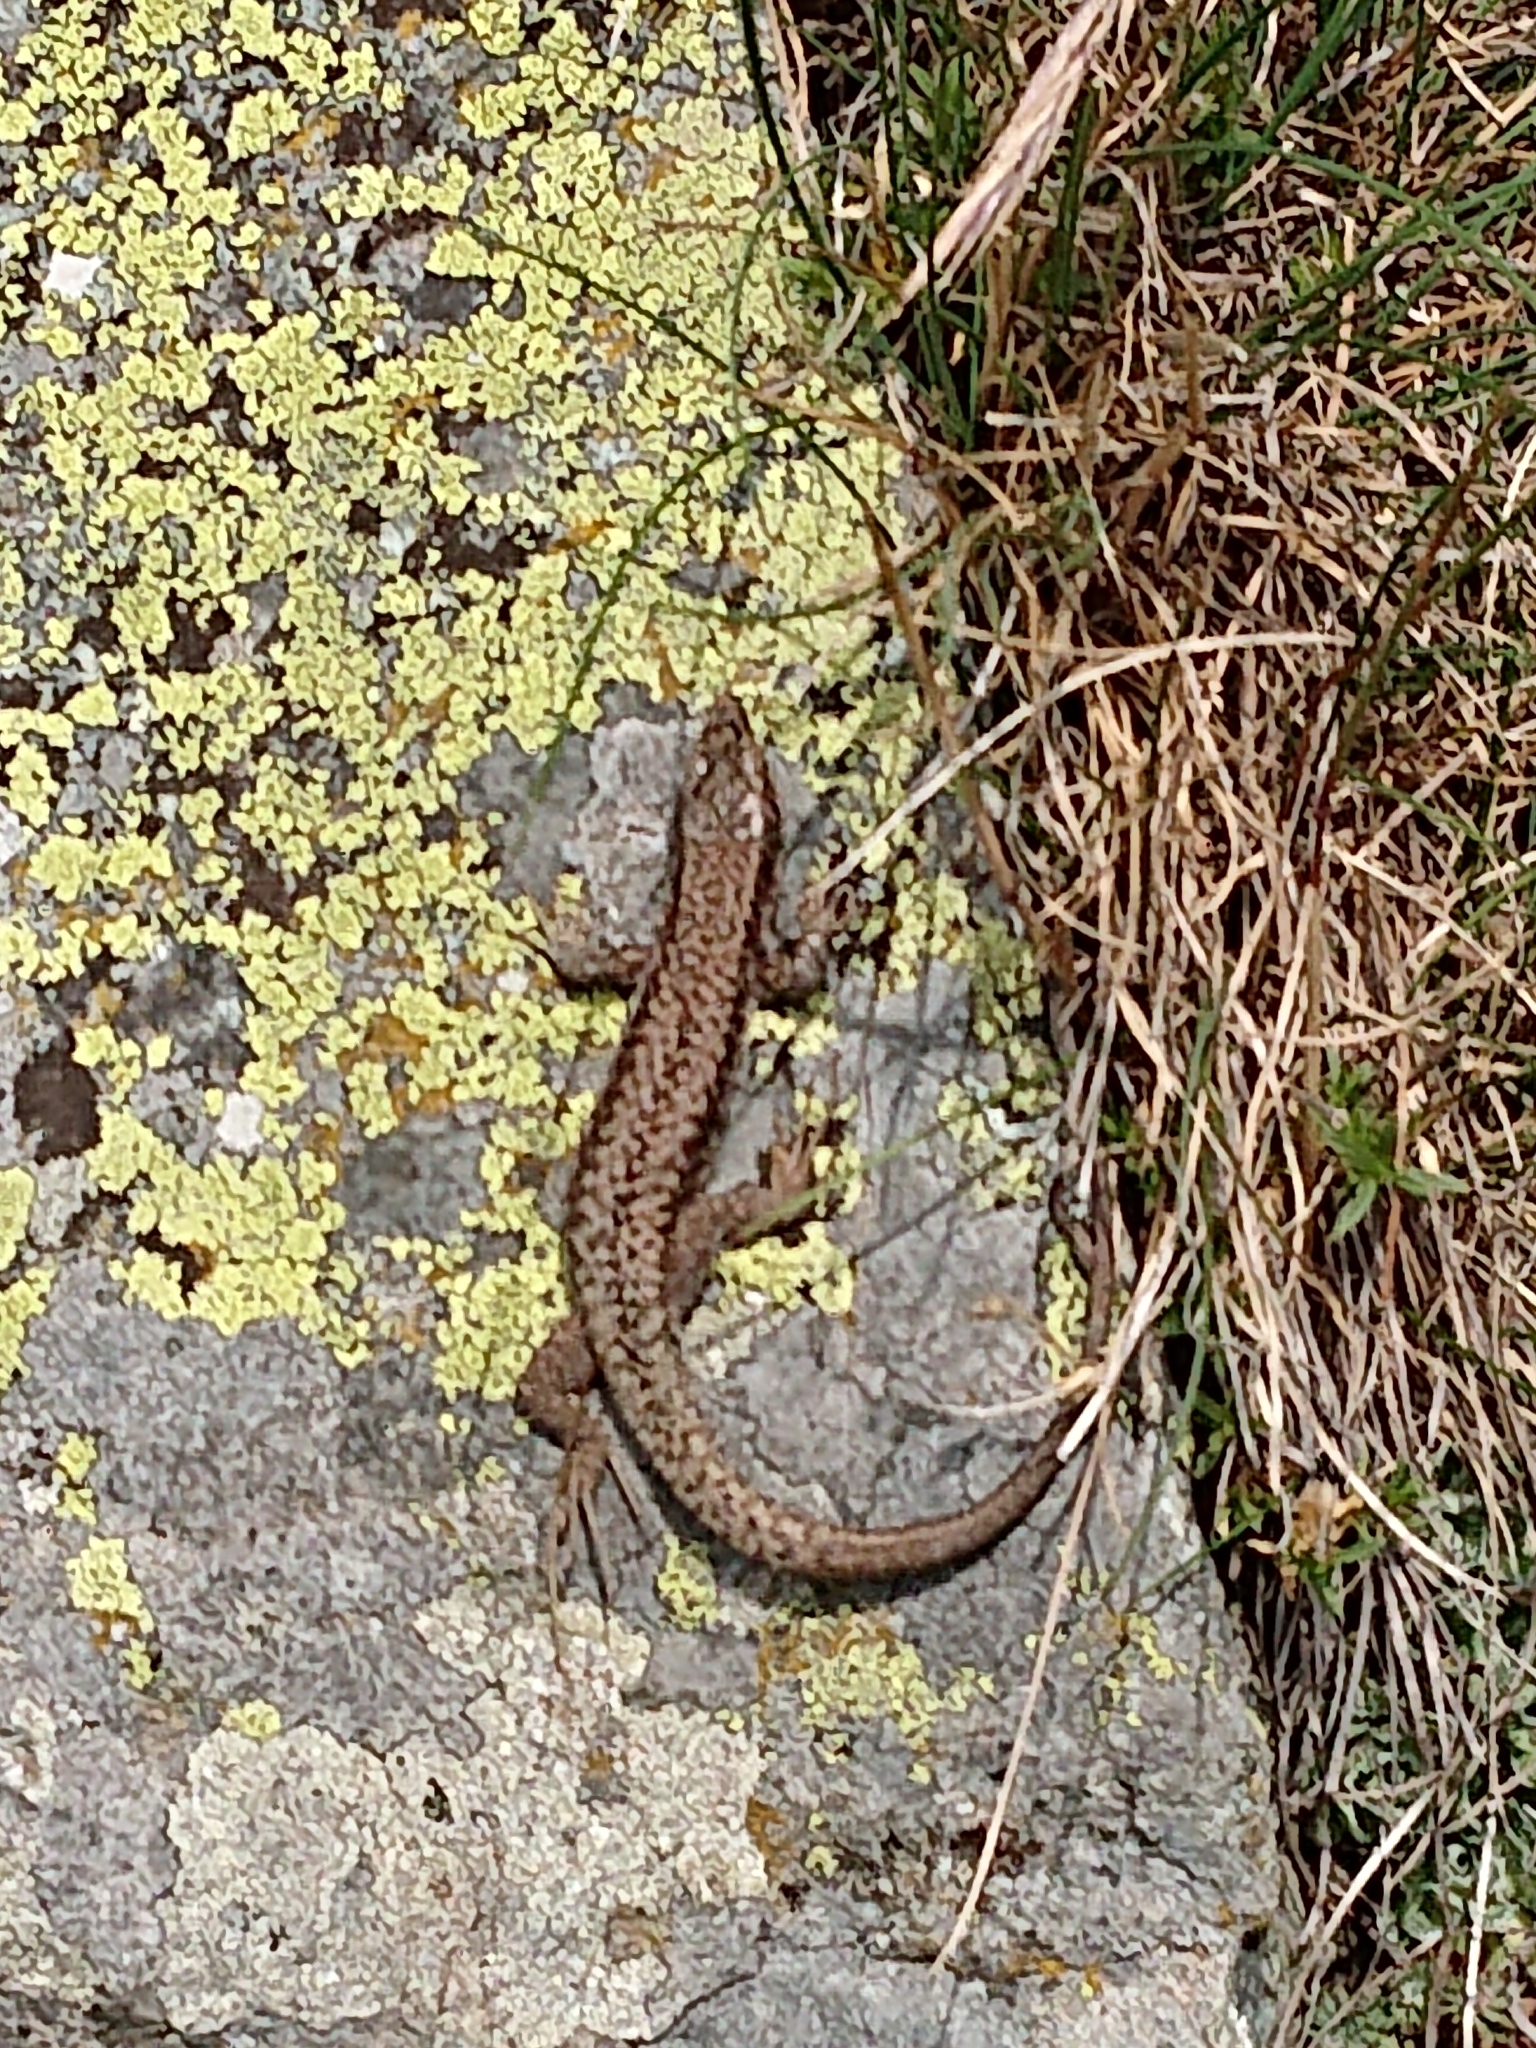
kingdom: Animalia
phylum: Chordata
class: Squamata
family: Lacertidae
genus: Podarcis
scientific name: Podarcis muralis
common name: Common wall lizard
